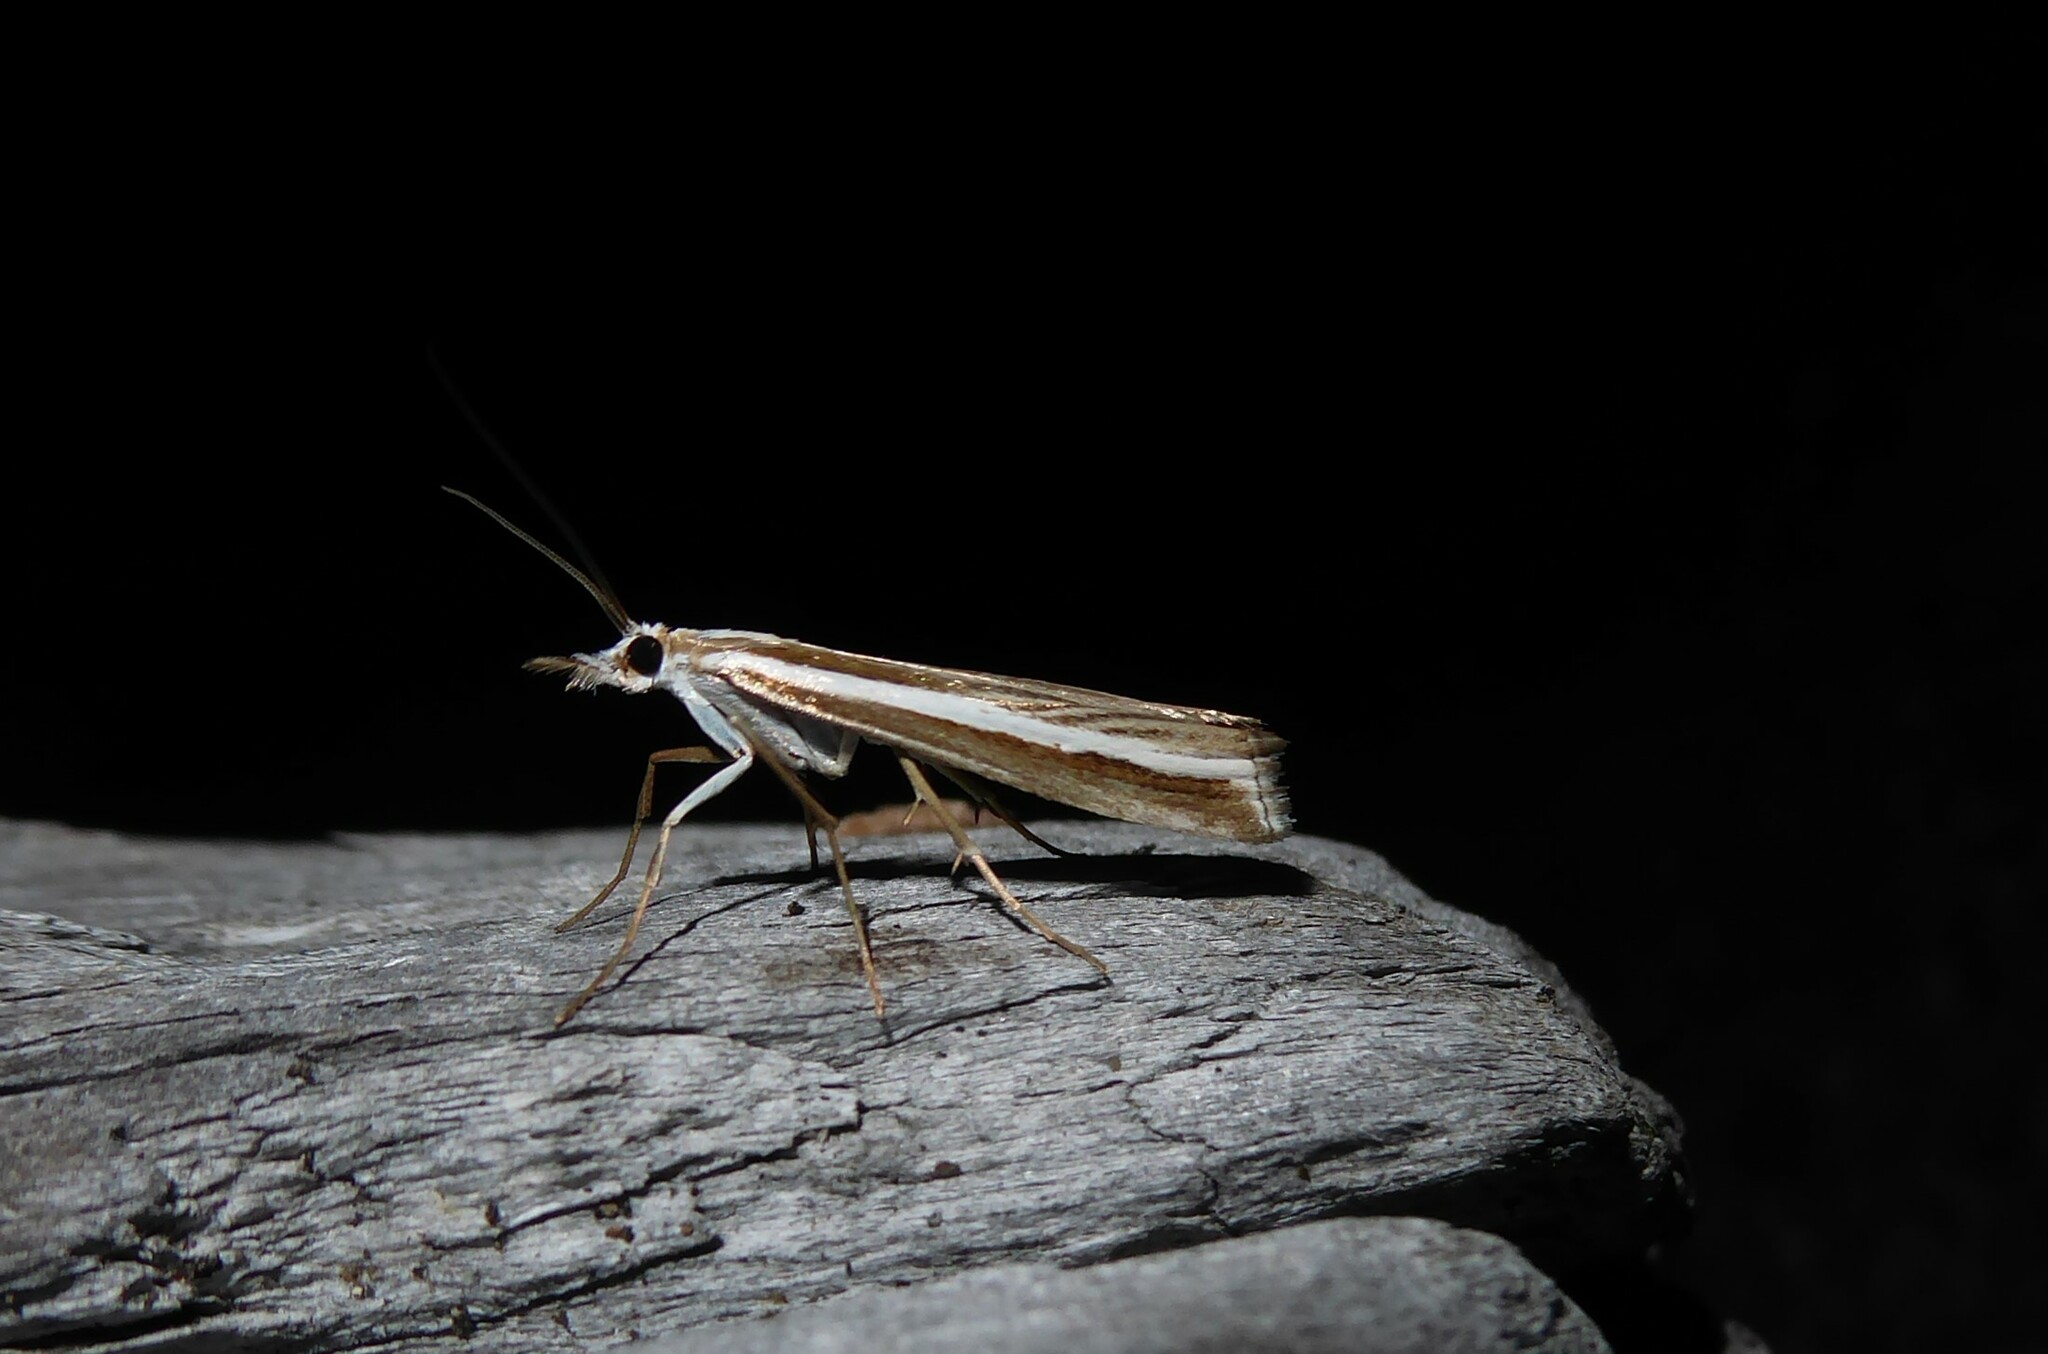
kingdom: Animalia
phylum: Arthropoda
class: Insecta
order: Lepidoptera
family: Crambidae
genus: Orocrambus
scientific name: Orocrambus vittellus
